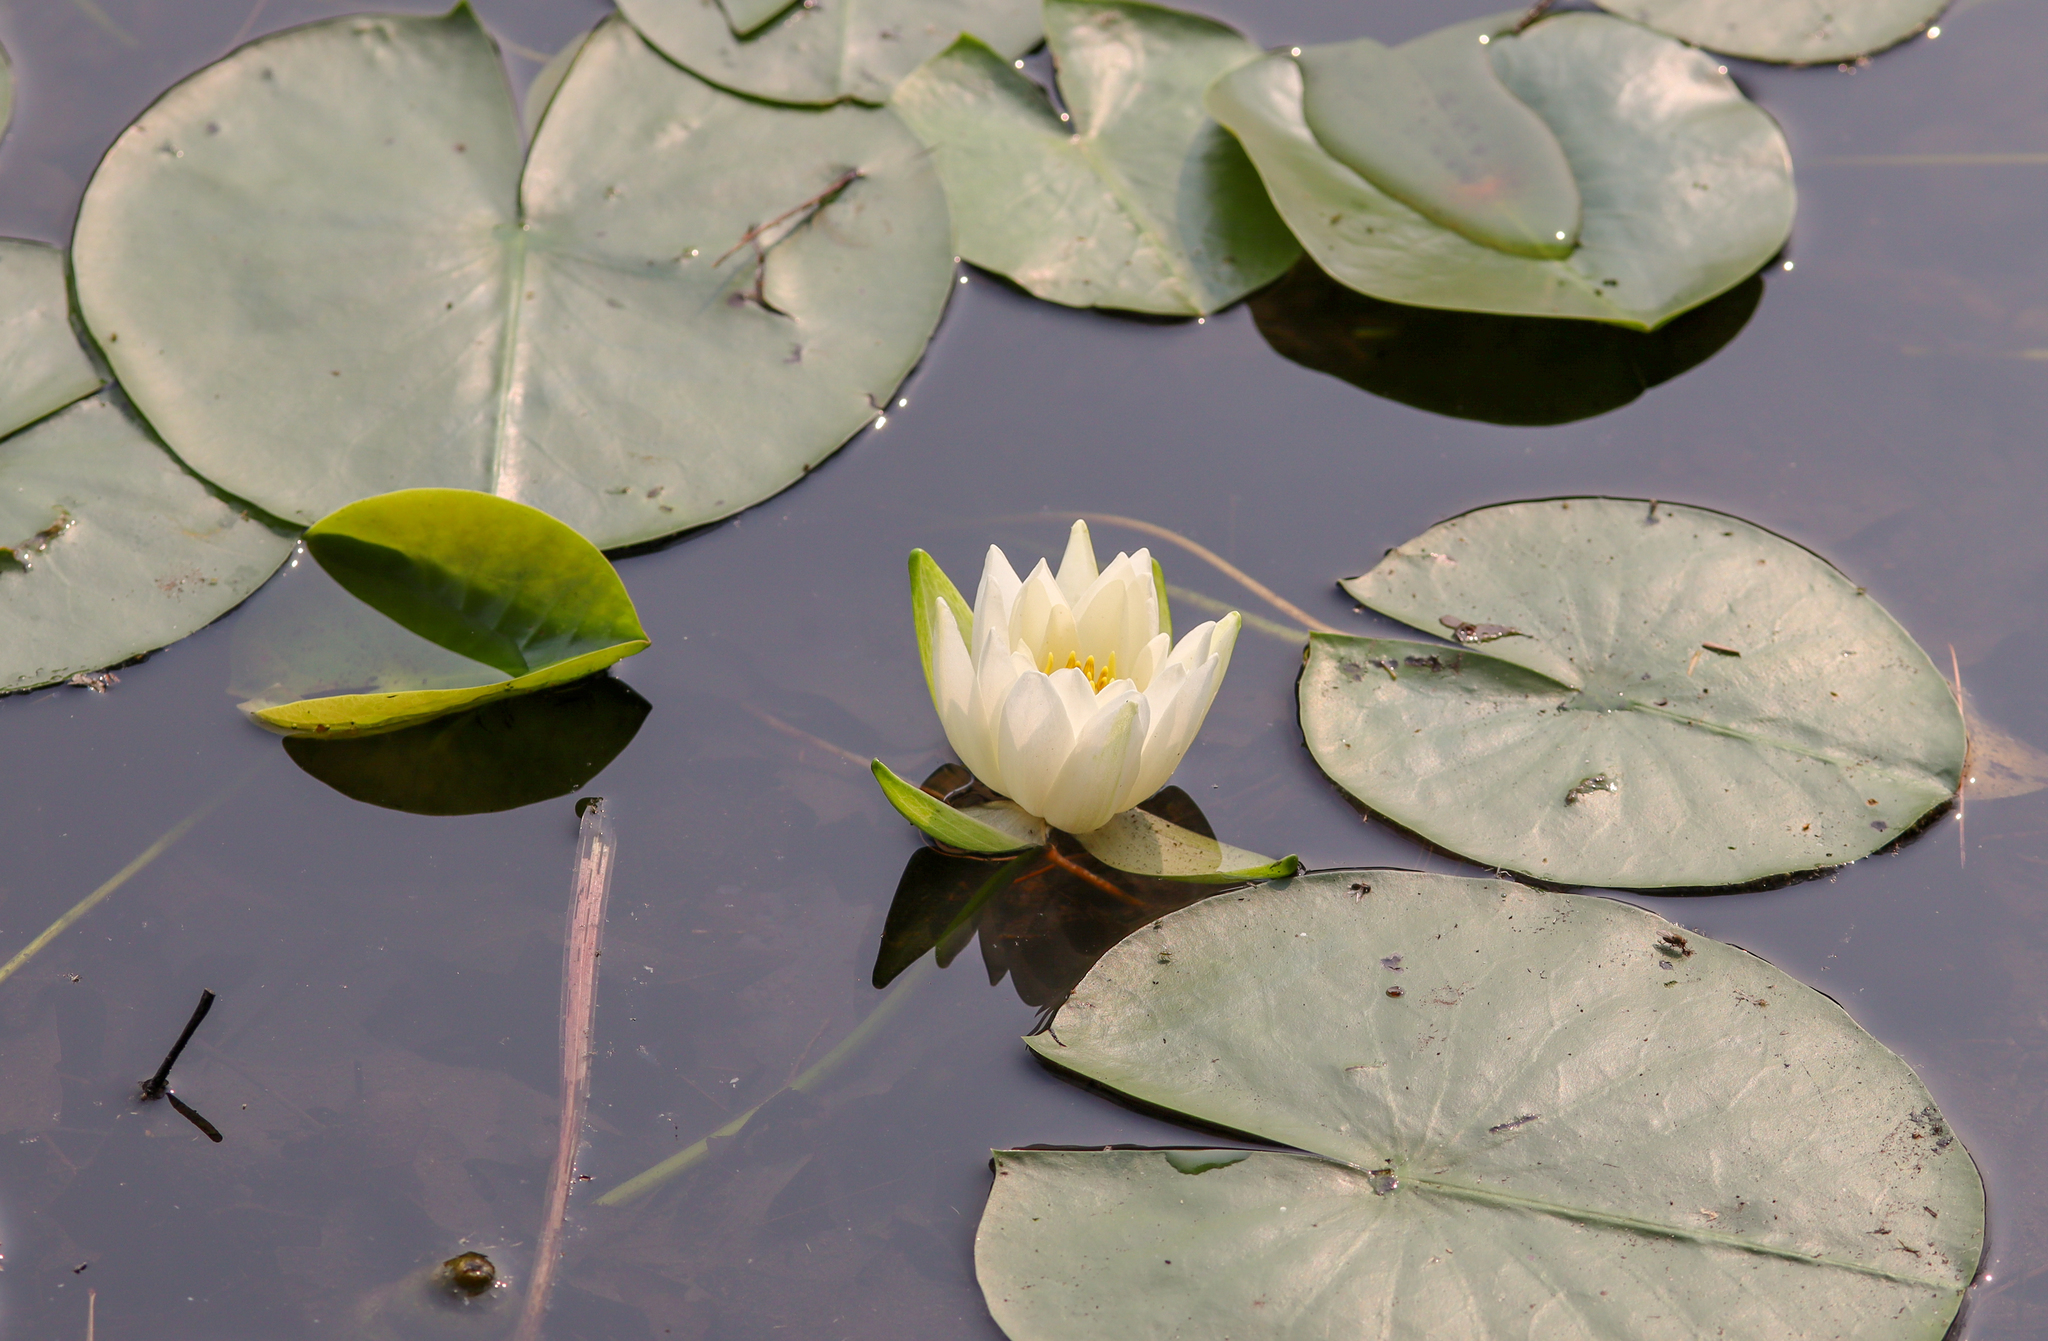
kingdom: Plantae
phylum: Tracheophyta
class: Magnoliopsida
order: Nymphaeales
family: Nymphaeaceae
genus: Nymphaea
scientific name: Nymphaea odorata
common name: Fragrant water-lily
